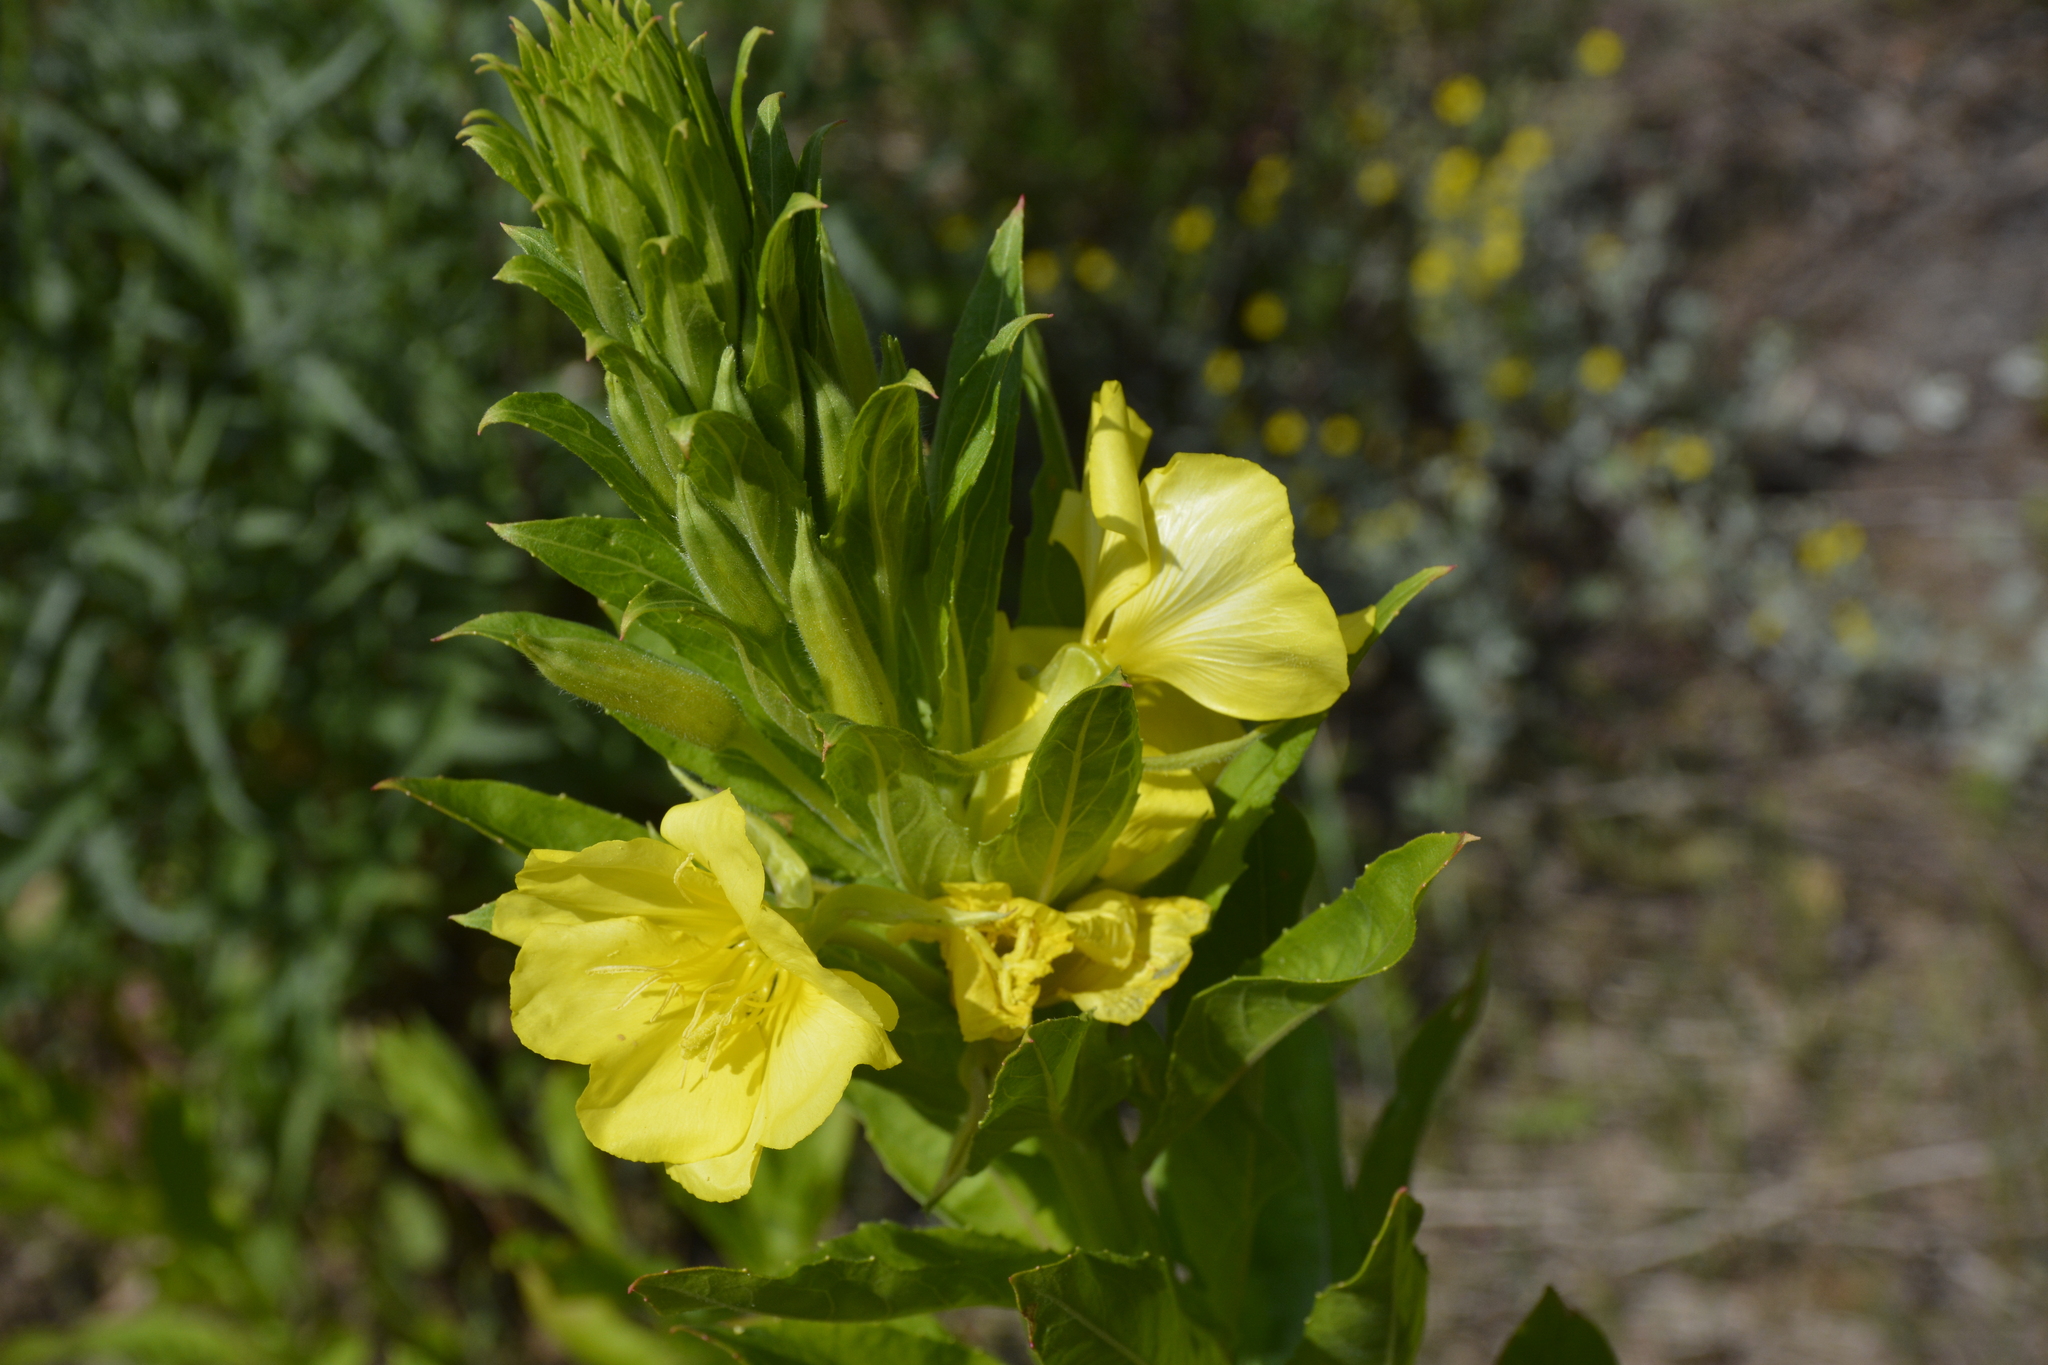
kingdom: Plantae
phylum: Tracheophyta
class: Magnoliopsida
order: Myrtales
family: Onagraceae
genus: Oenothera
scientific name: Oenothera biennis
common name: Common evening-primrose
